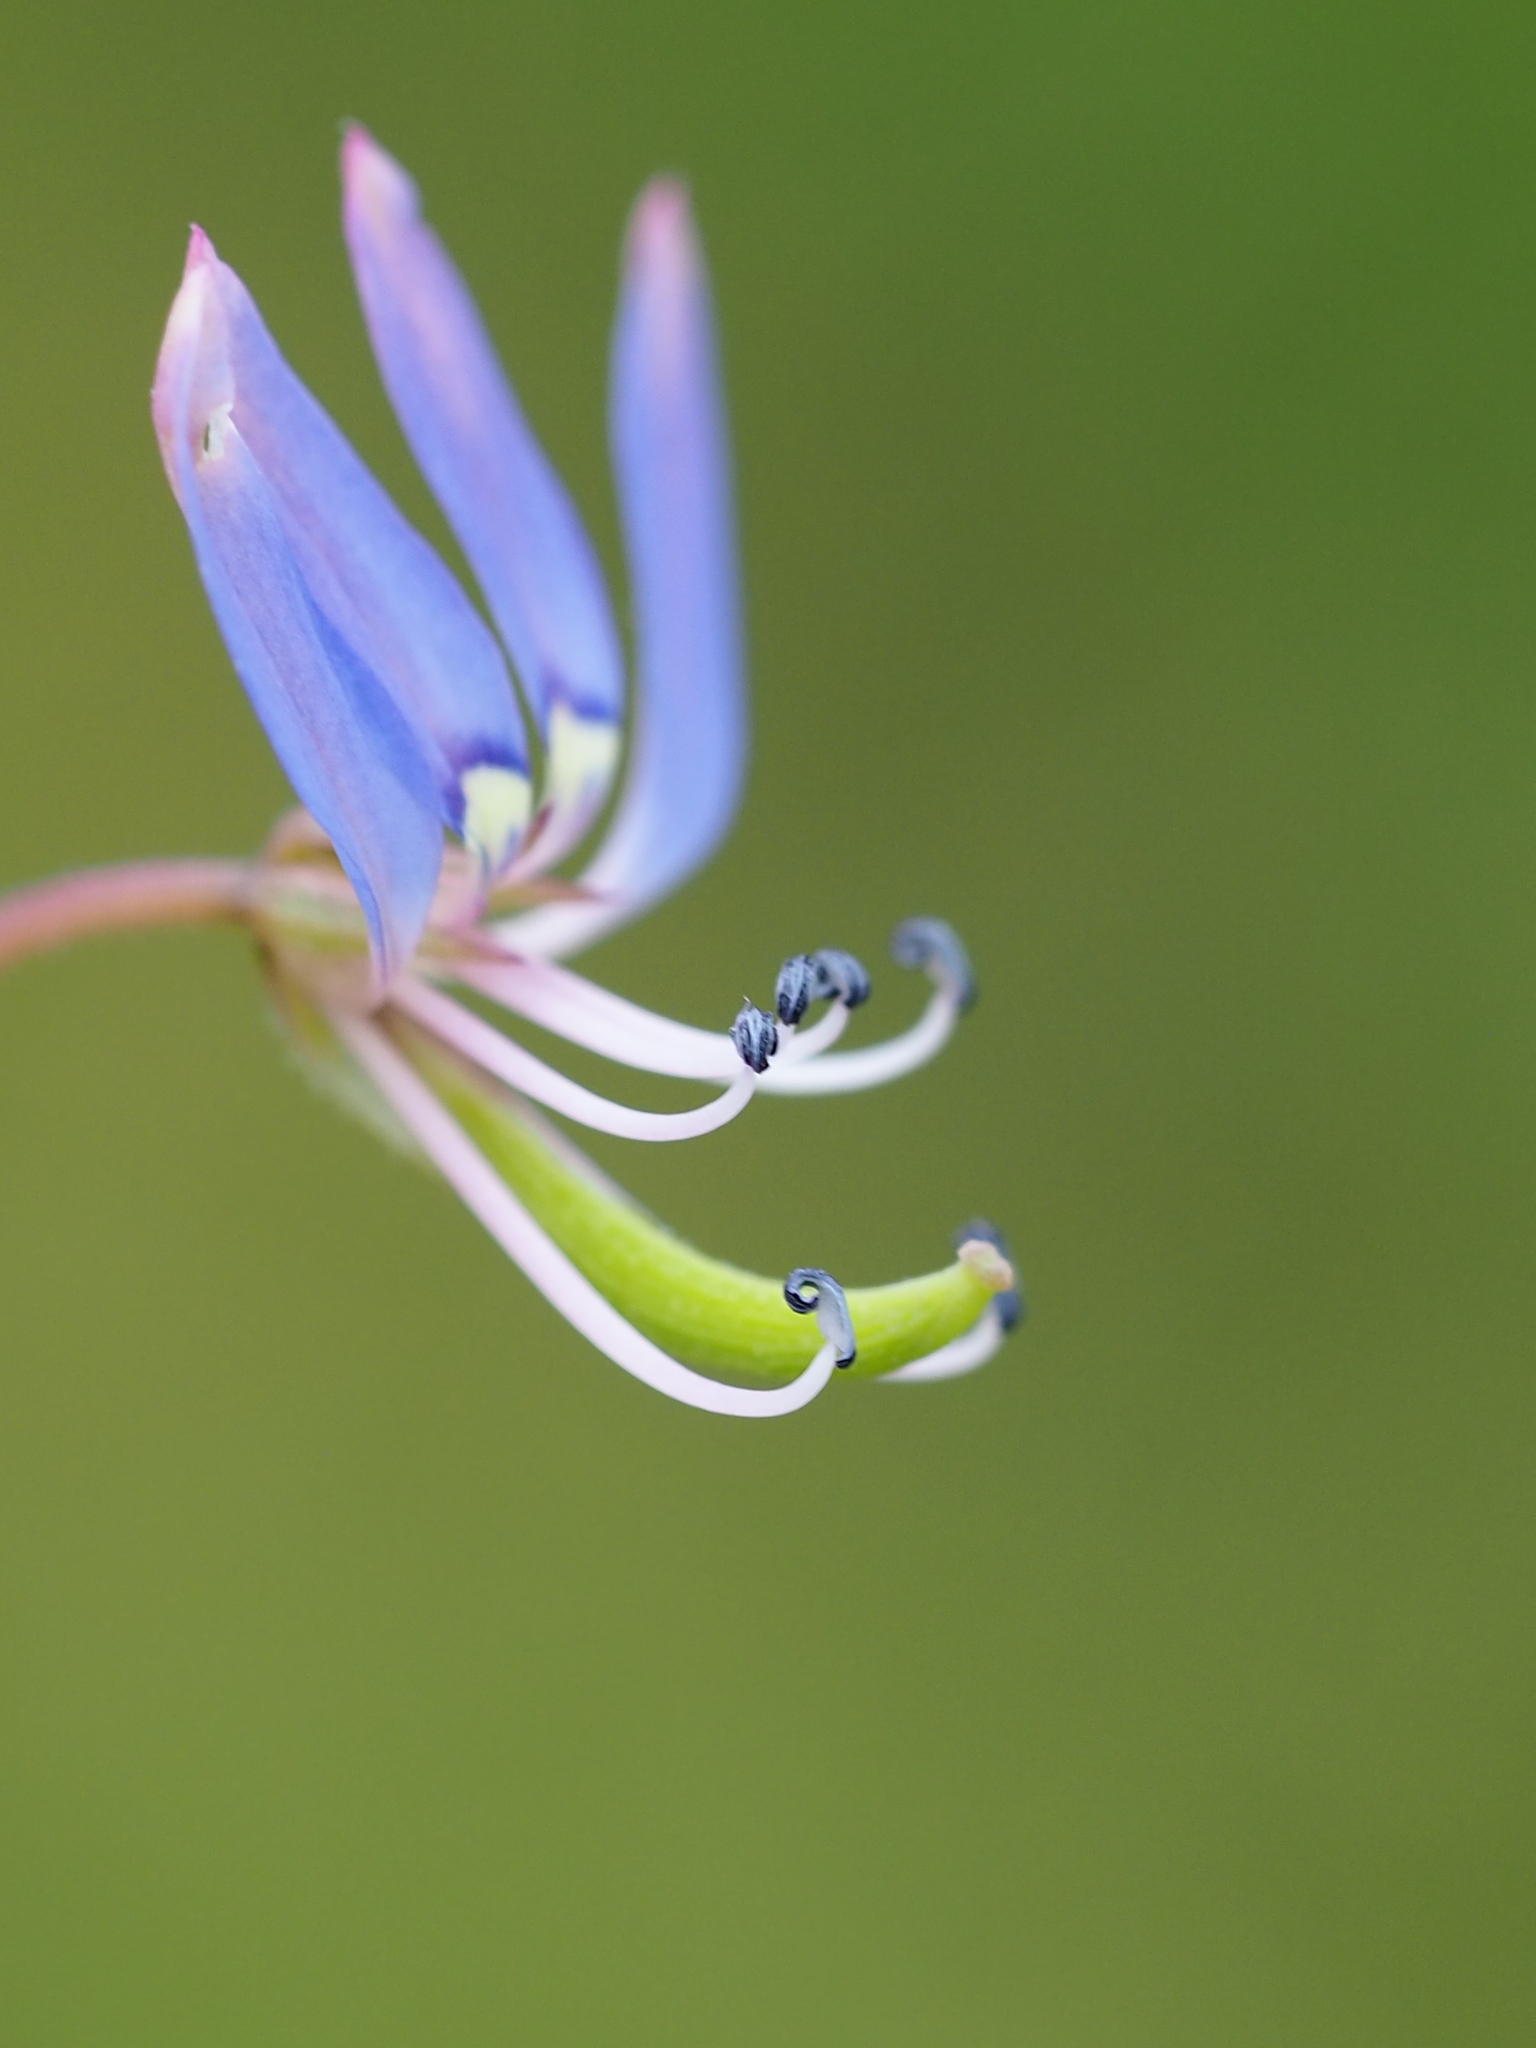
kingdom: Plantae
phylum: Tracheophyta
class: Magnoliopsida
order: Brassicales
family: Cleomaceae
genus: Sieruela
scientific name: Sieruela rutidosperma
